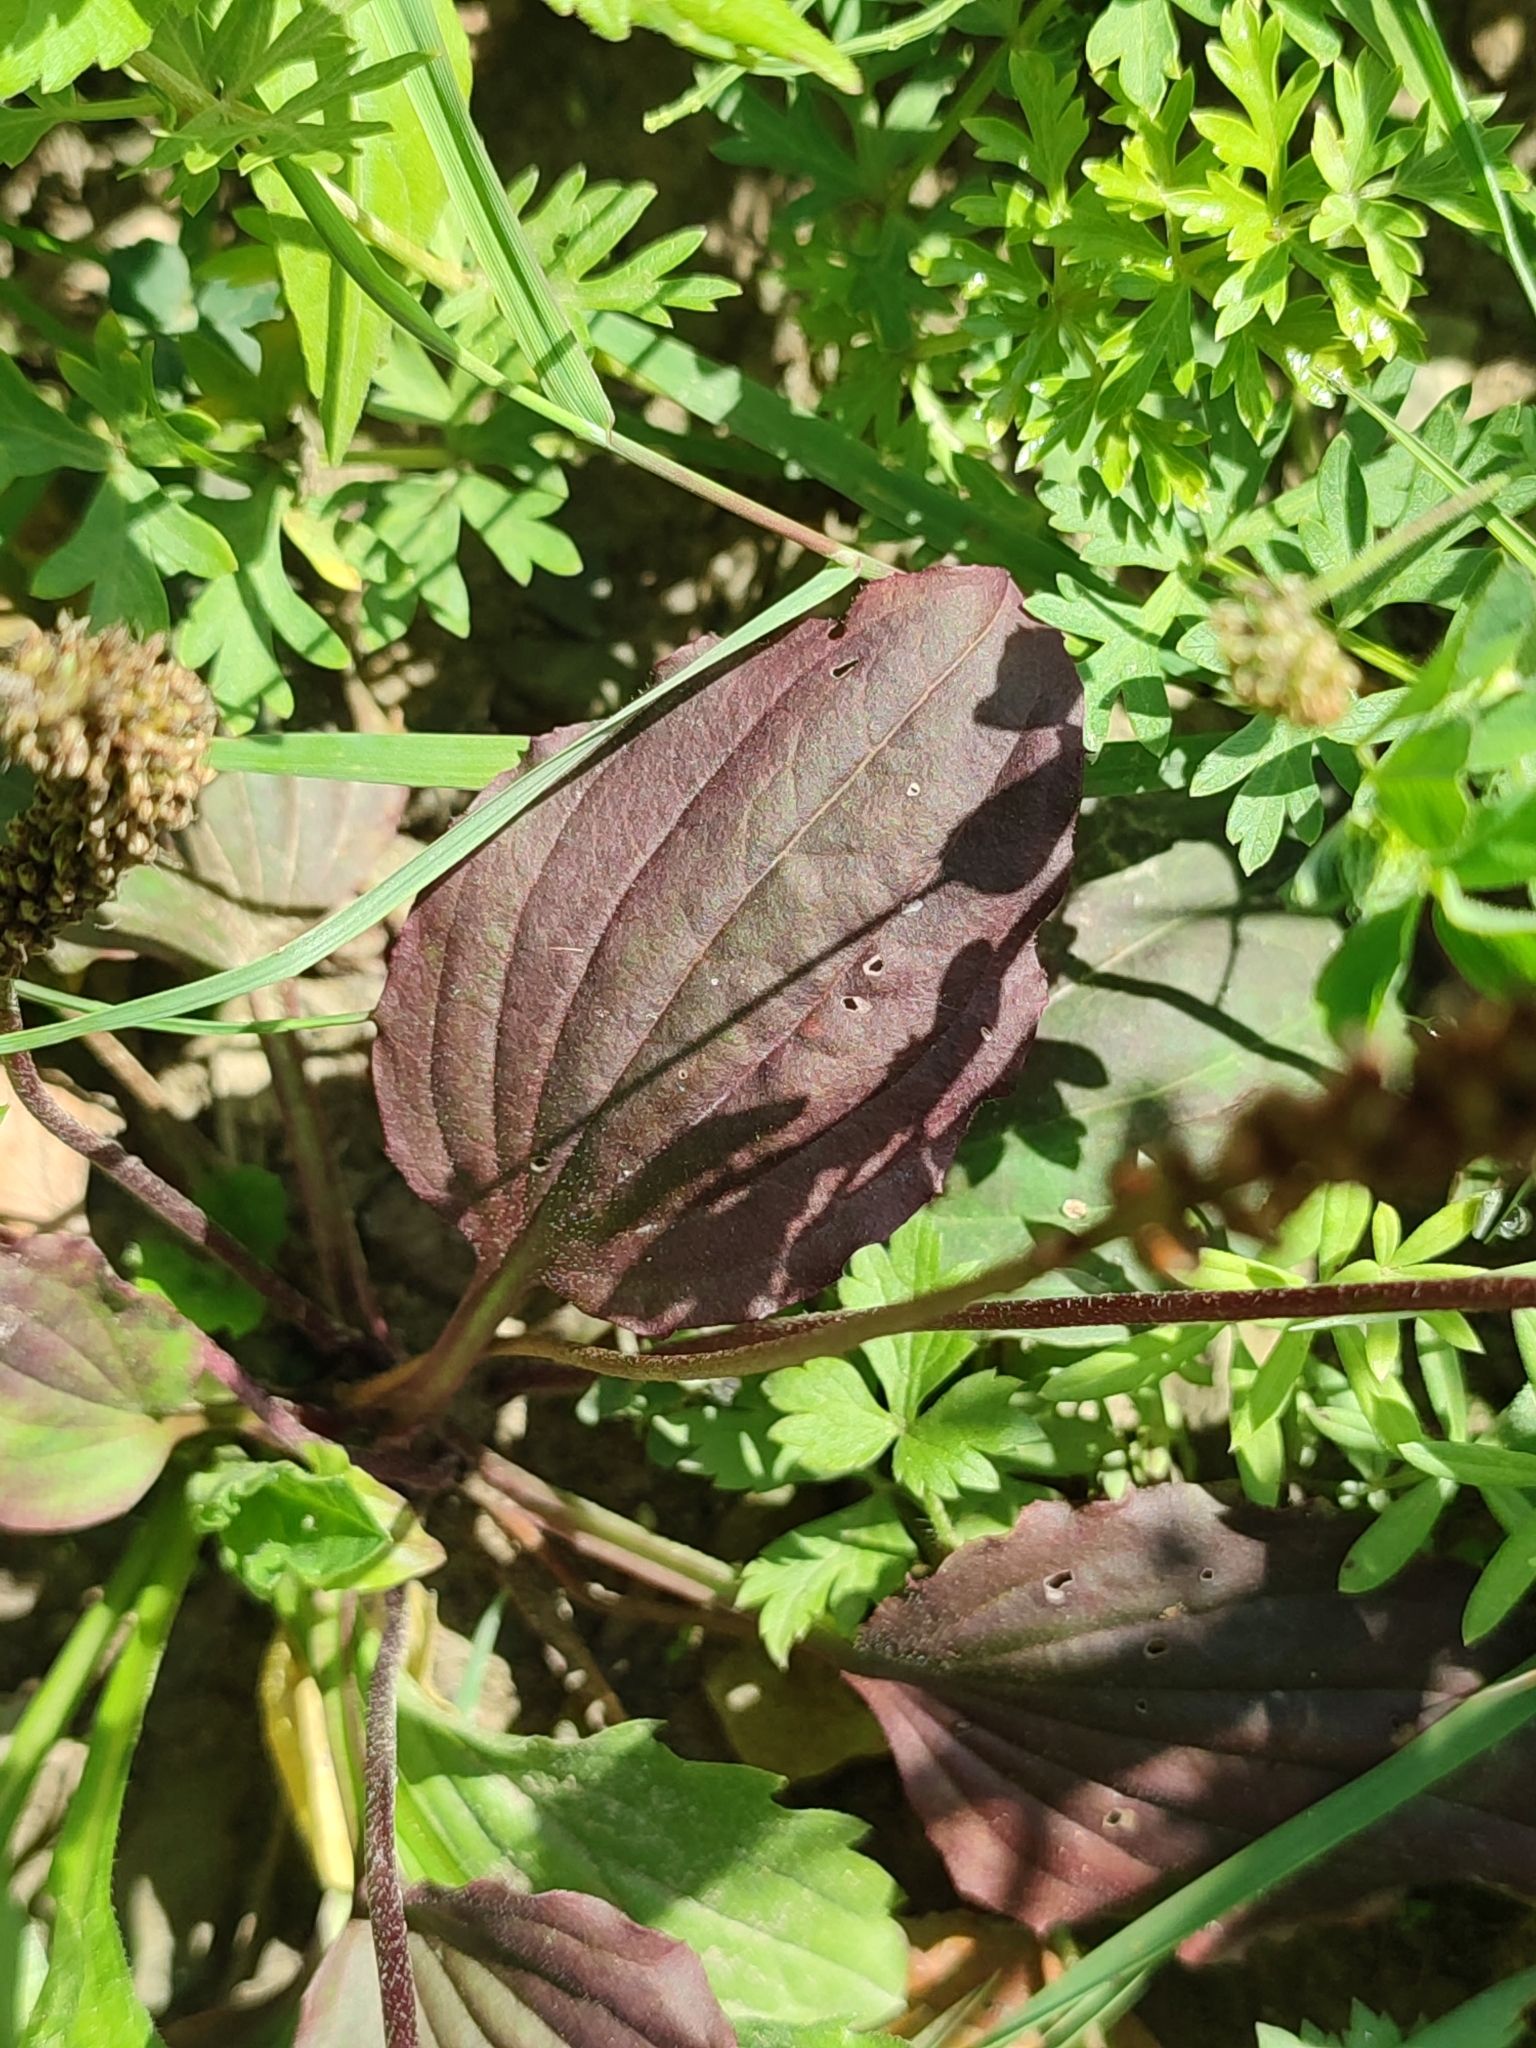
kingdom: Plantae
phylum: Tracheophyta
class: Magnoliopsida
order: Lamiales
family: Plantaginaceae
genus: Plantago
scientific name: Plantago major
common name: Common plantain
